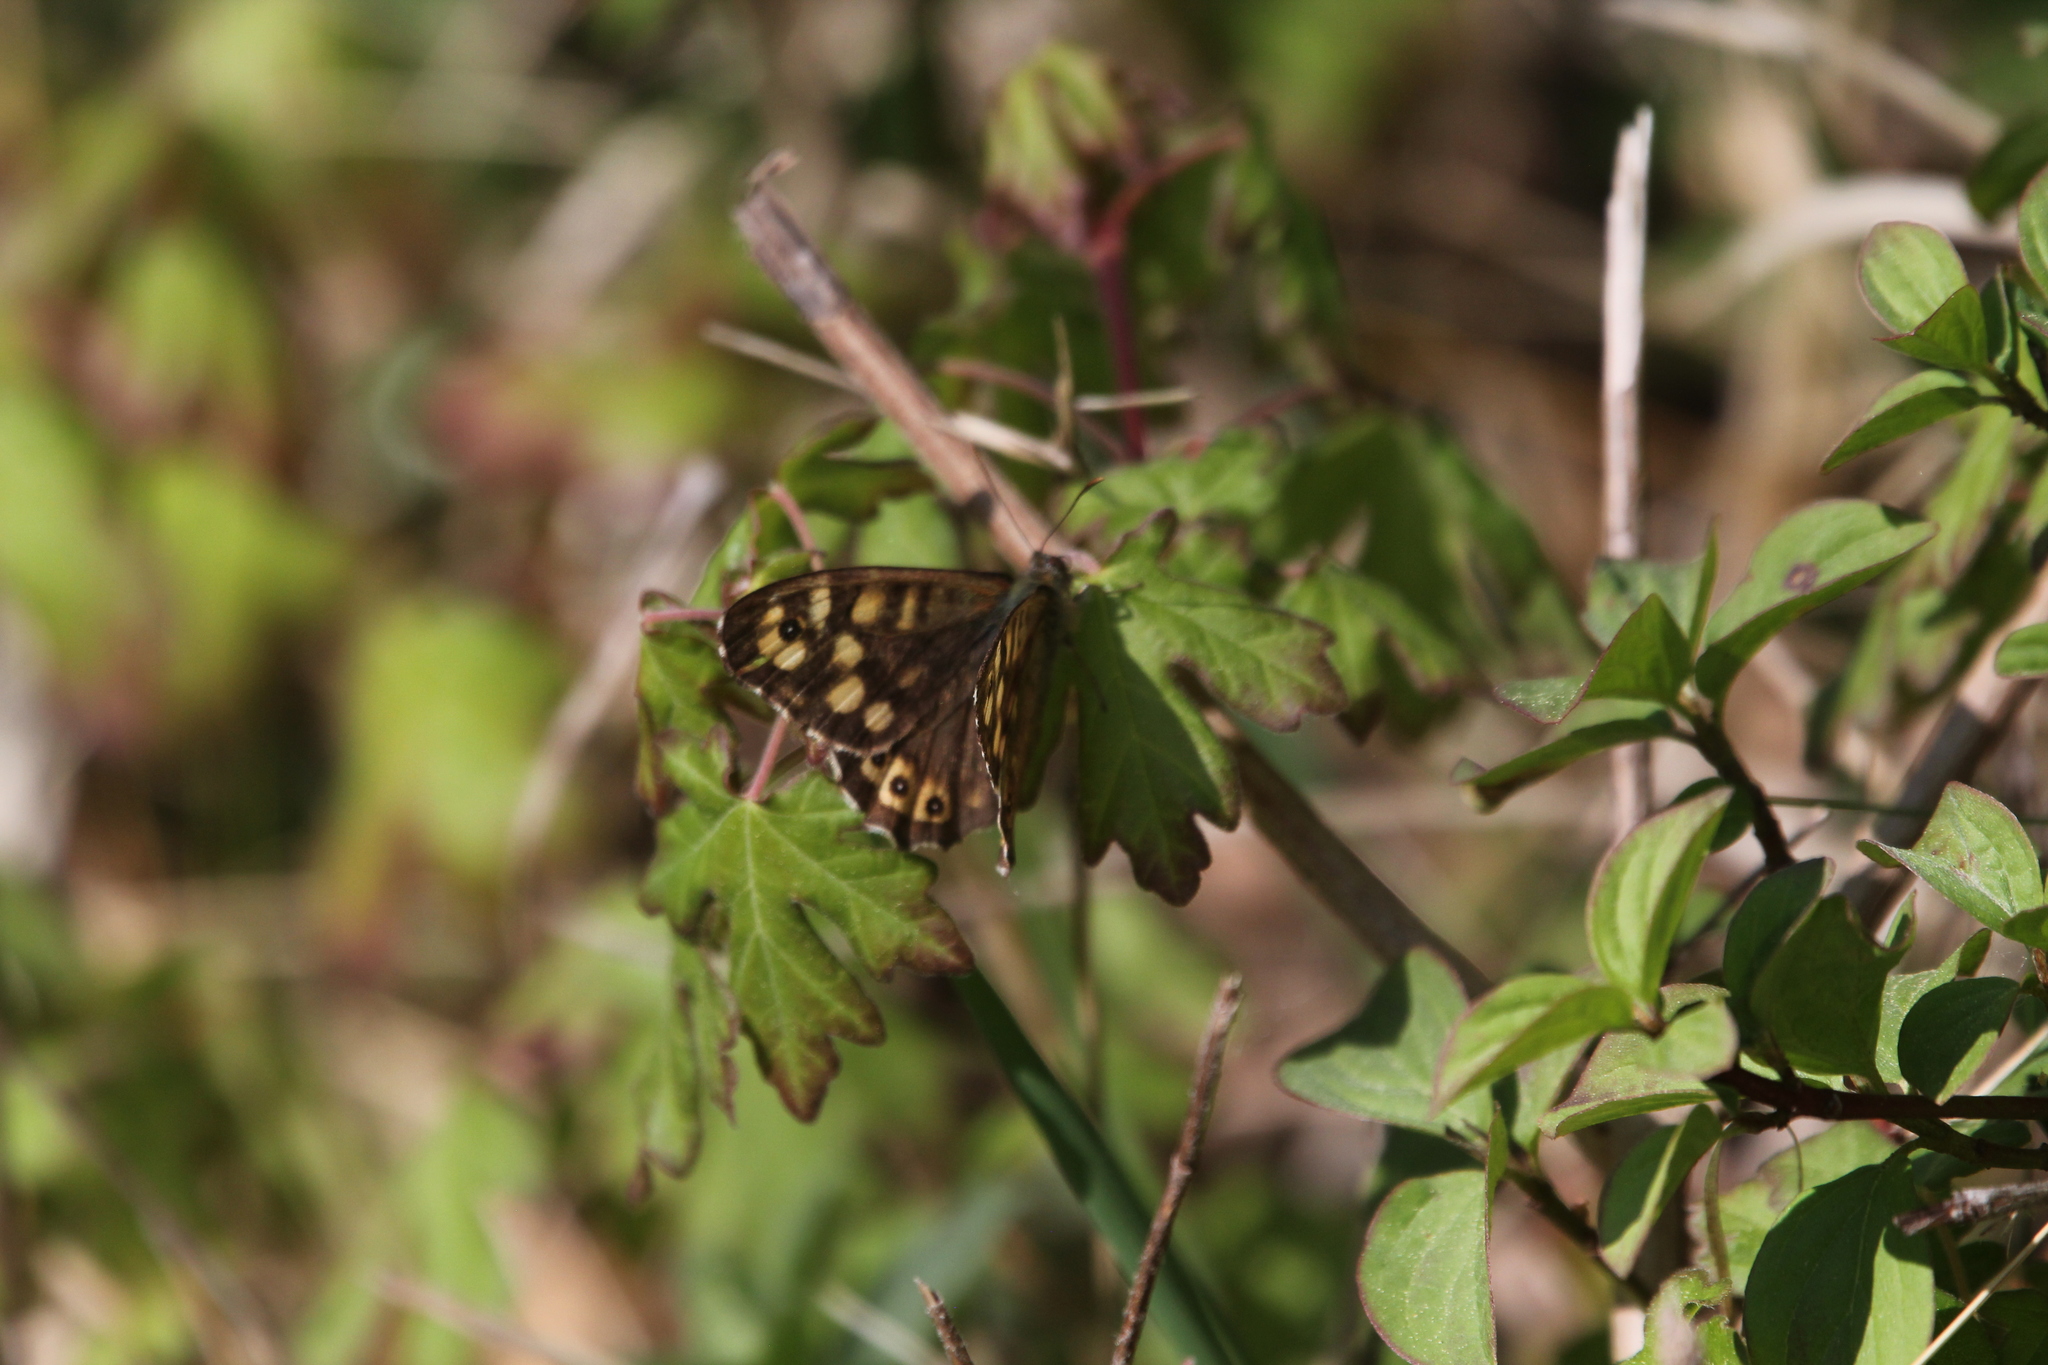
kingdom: Animalia
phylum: Arthropoda
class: Insecta
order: Lepidoptera
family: Nymphalidae
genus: Pararge
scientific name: Pararge aegeria
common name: Speckled wood
